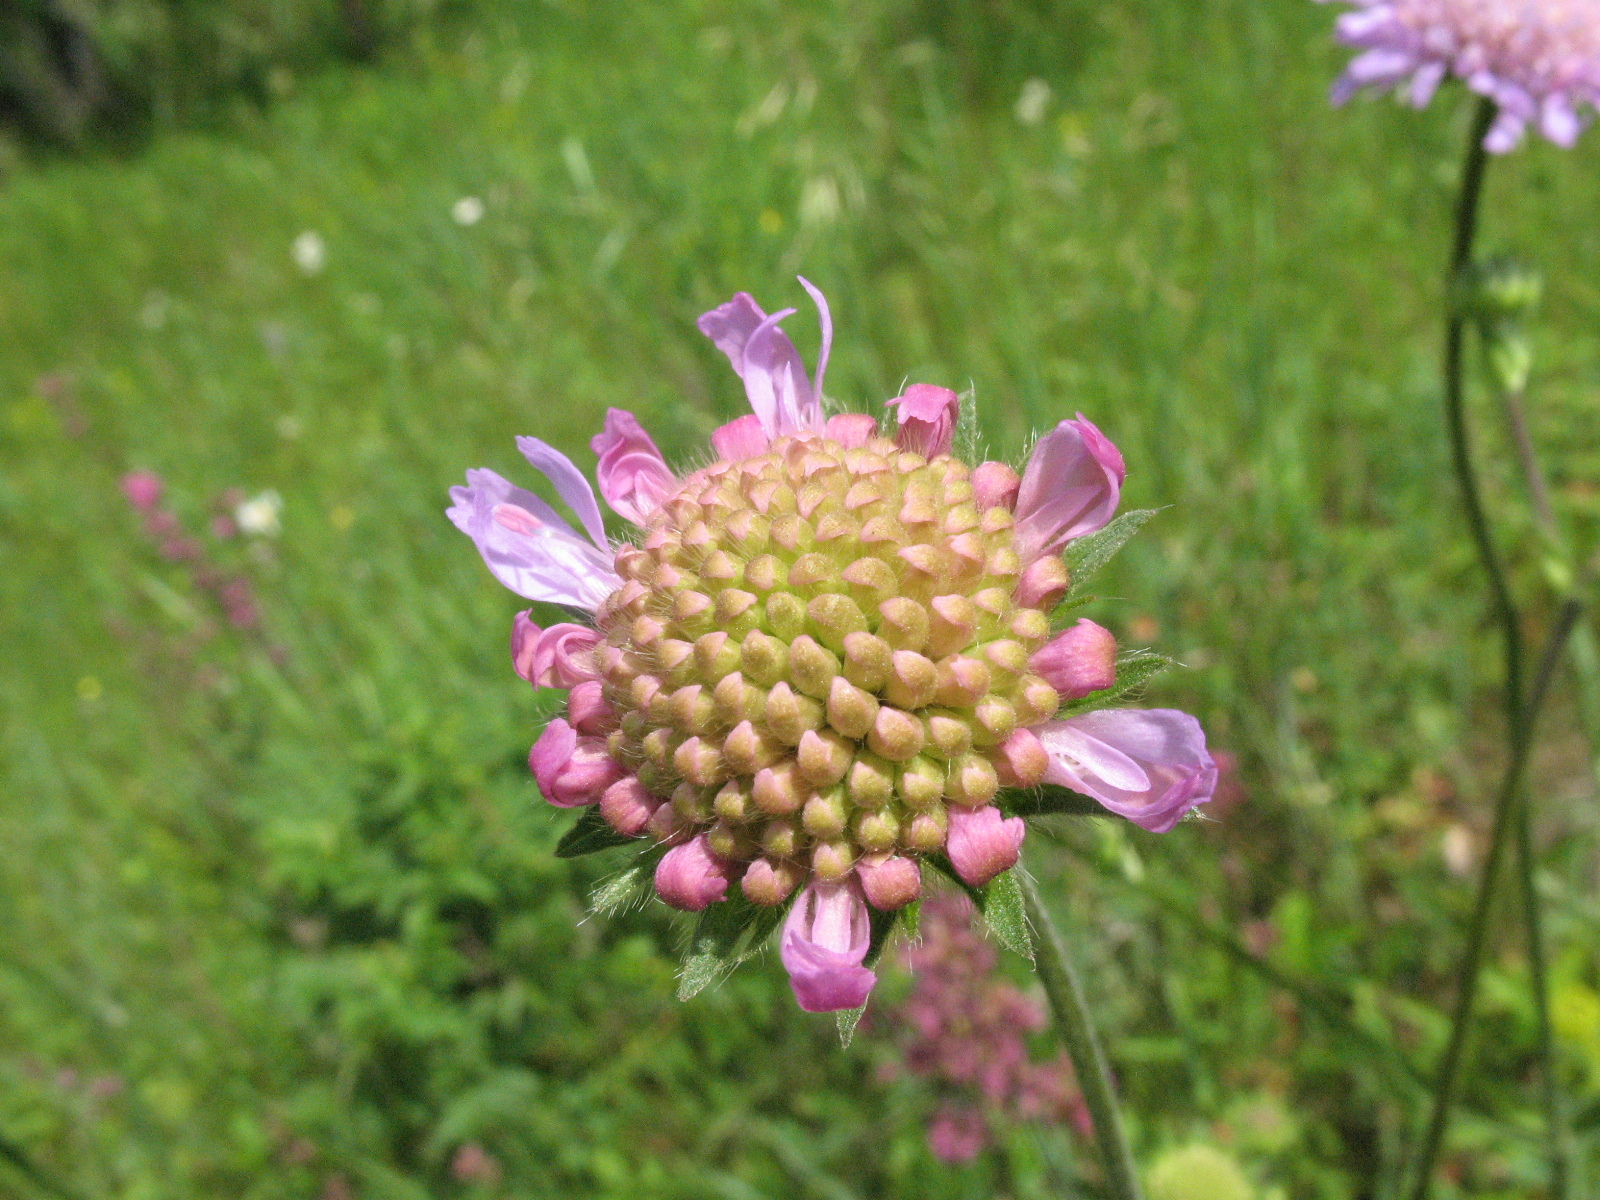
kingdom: Plantae
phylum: Tracheophyta
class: Magnoliopsida
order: Dipsacales
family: Caprifoliaceae
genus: Knautia
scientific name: Knautia arvensis
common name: Field scabiosa
